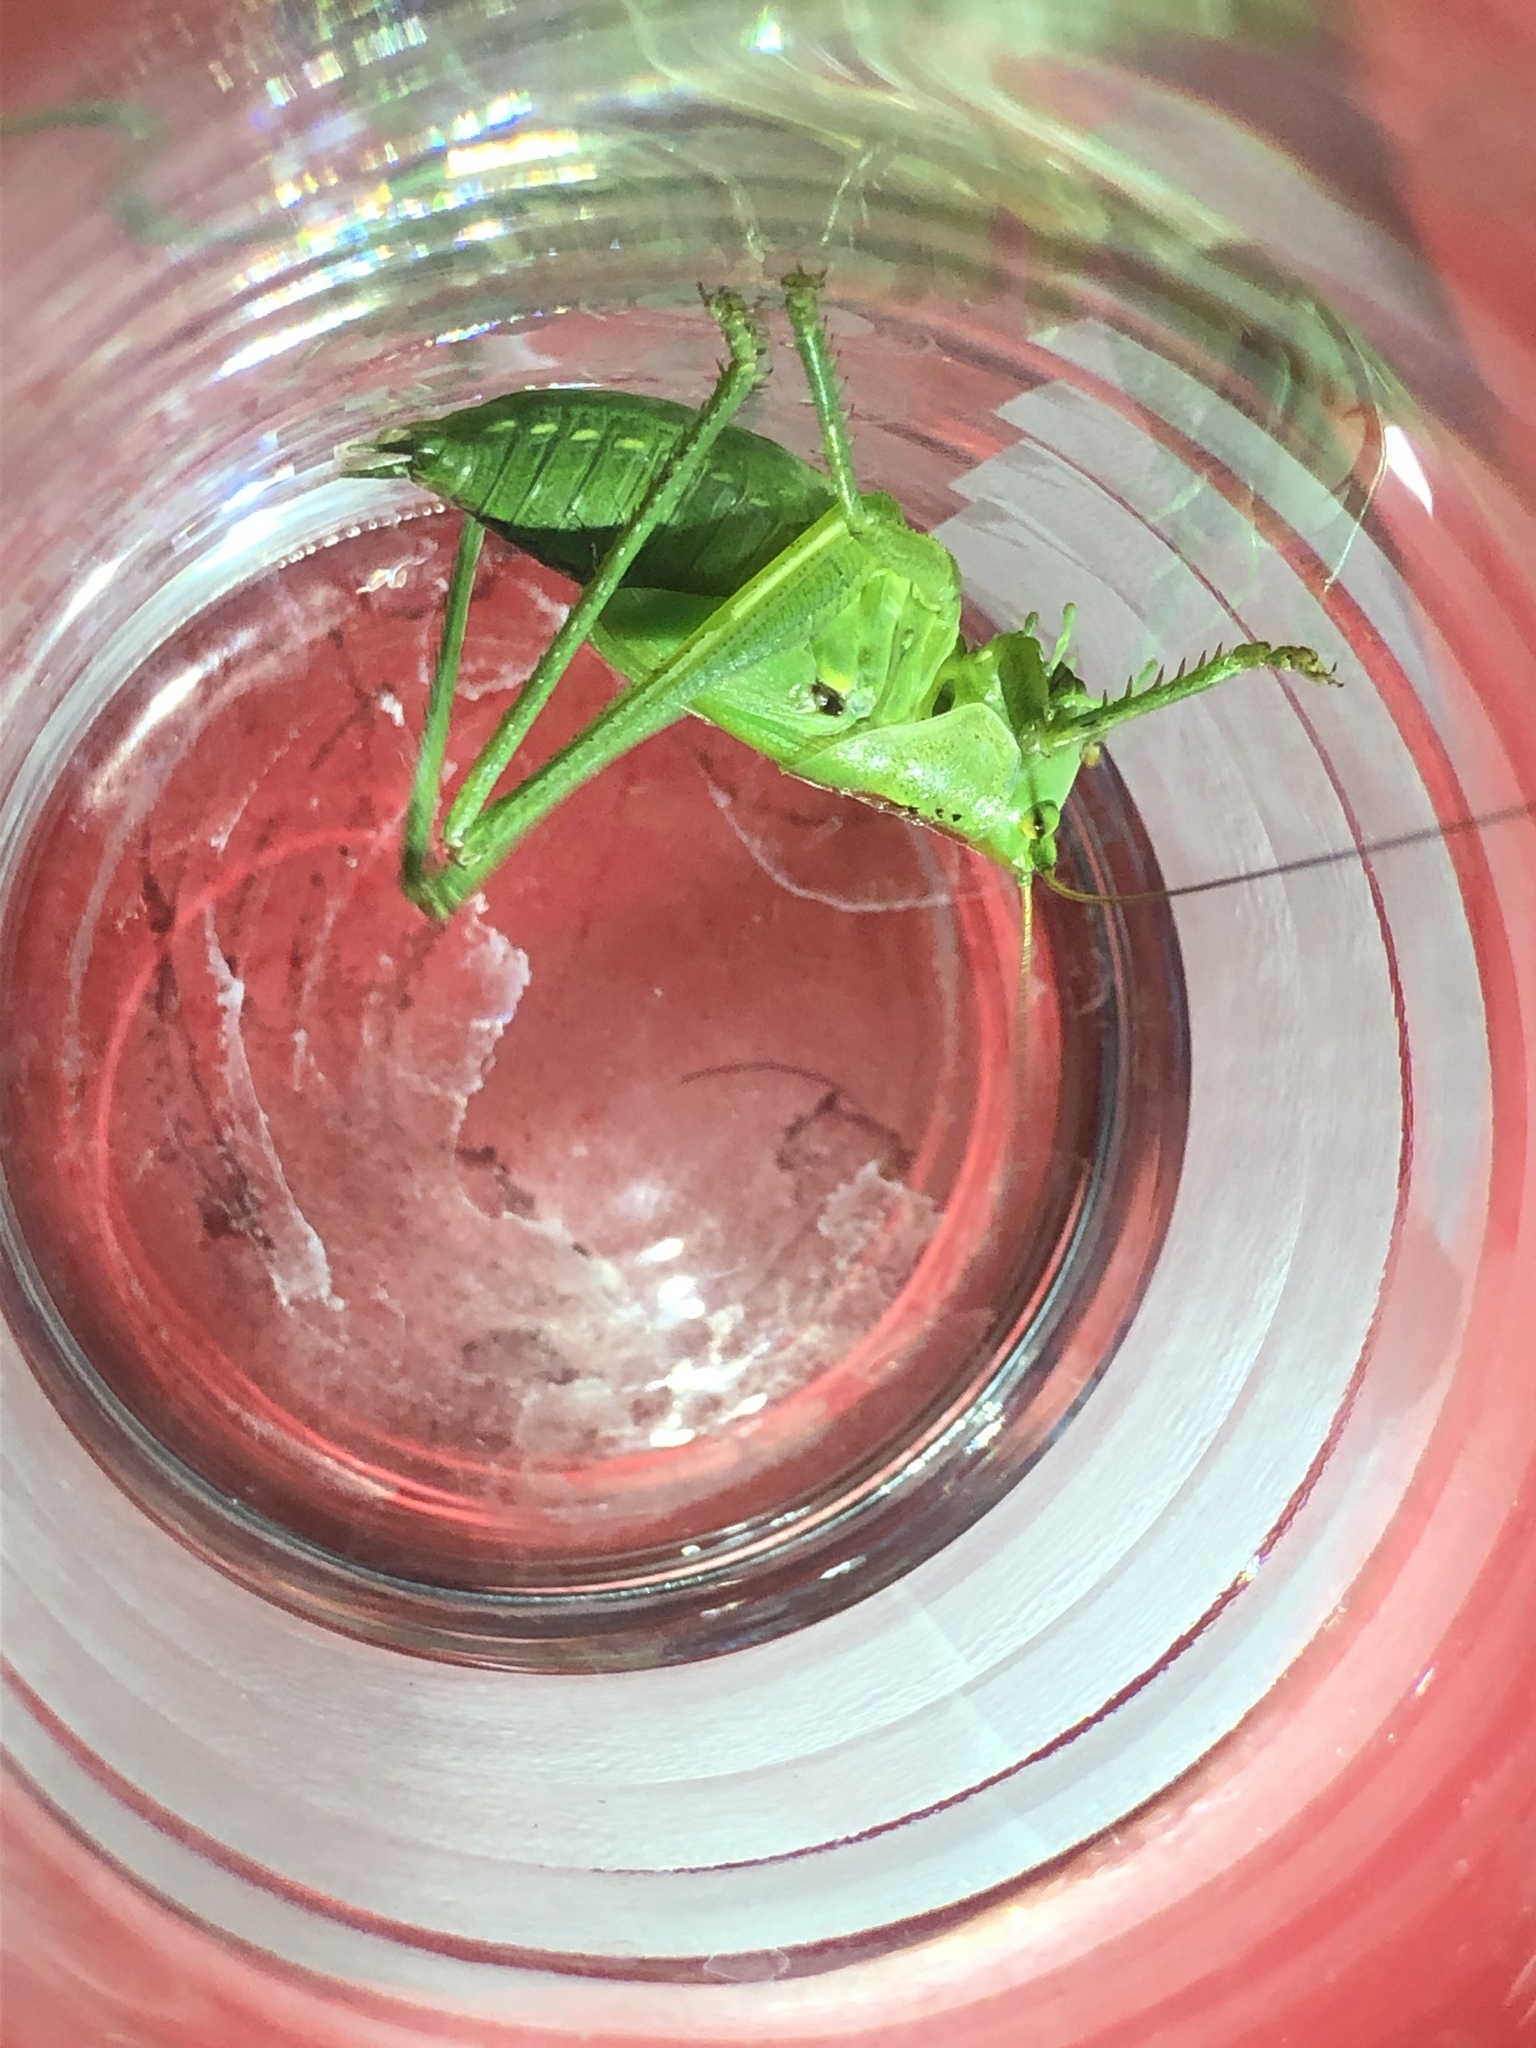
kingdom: Animalia
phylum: Arthropoda
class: Insecta
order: Orthoptera
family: Tettigoniidae
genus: Tettigonia
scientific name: Tettigonia viridissima
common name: Great green bush-cricket
